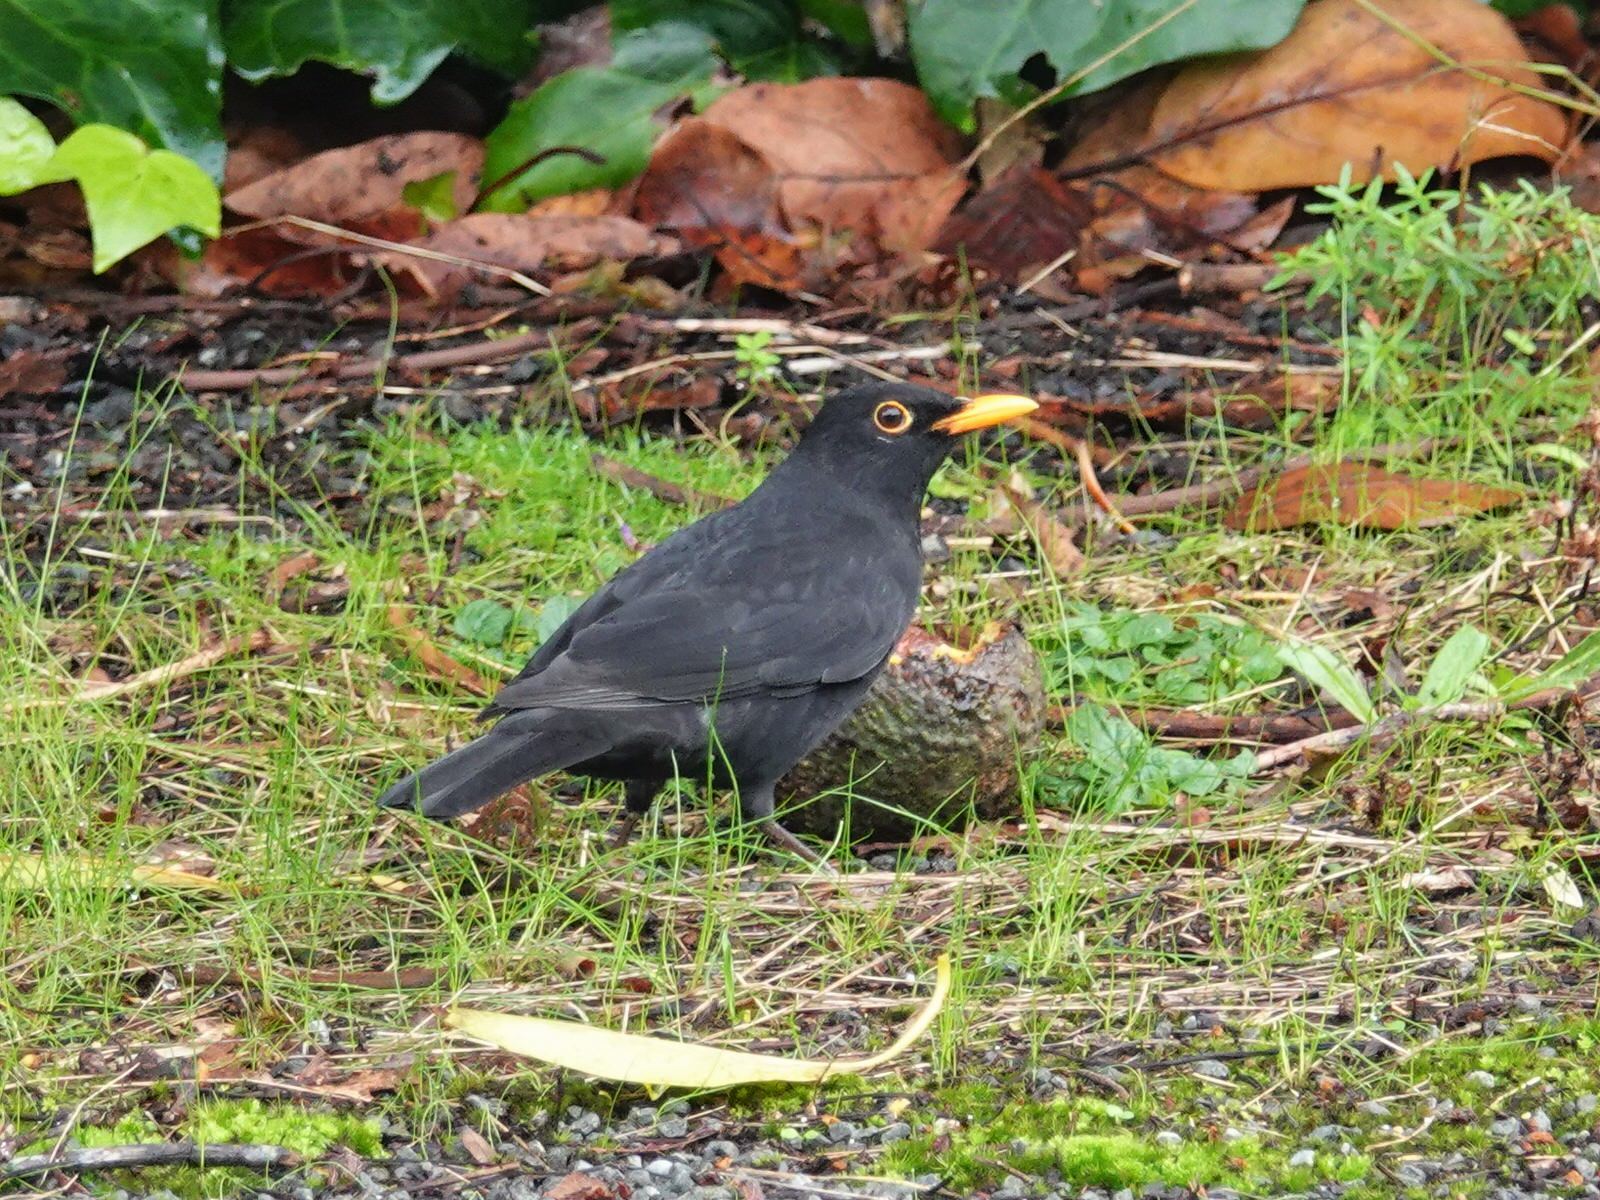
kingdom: Animalia
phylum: Chordata
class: Aves
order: Passeriformes
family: Turdidae
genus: Turdus
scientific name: Turdus merula
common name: Common blackbird
